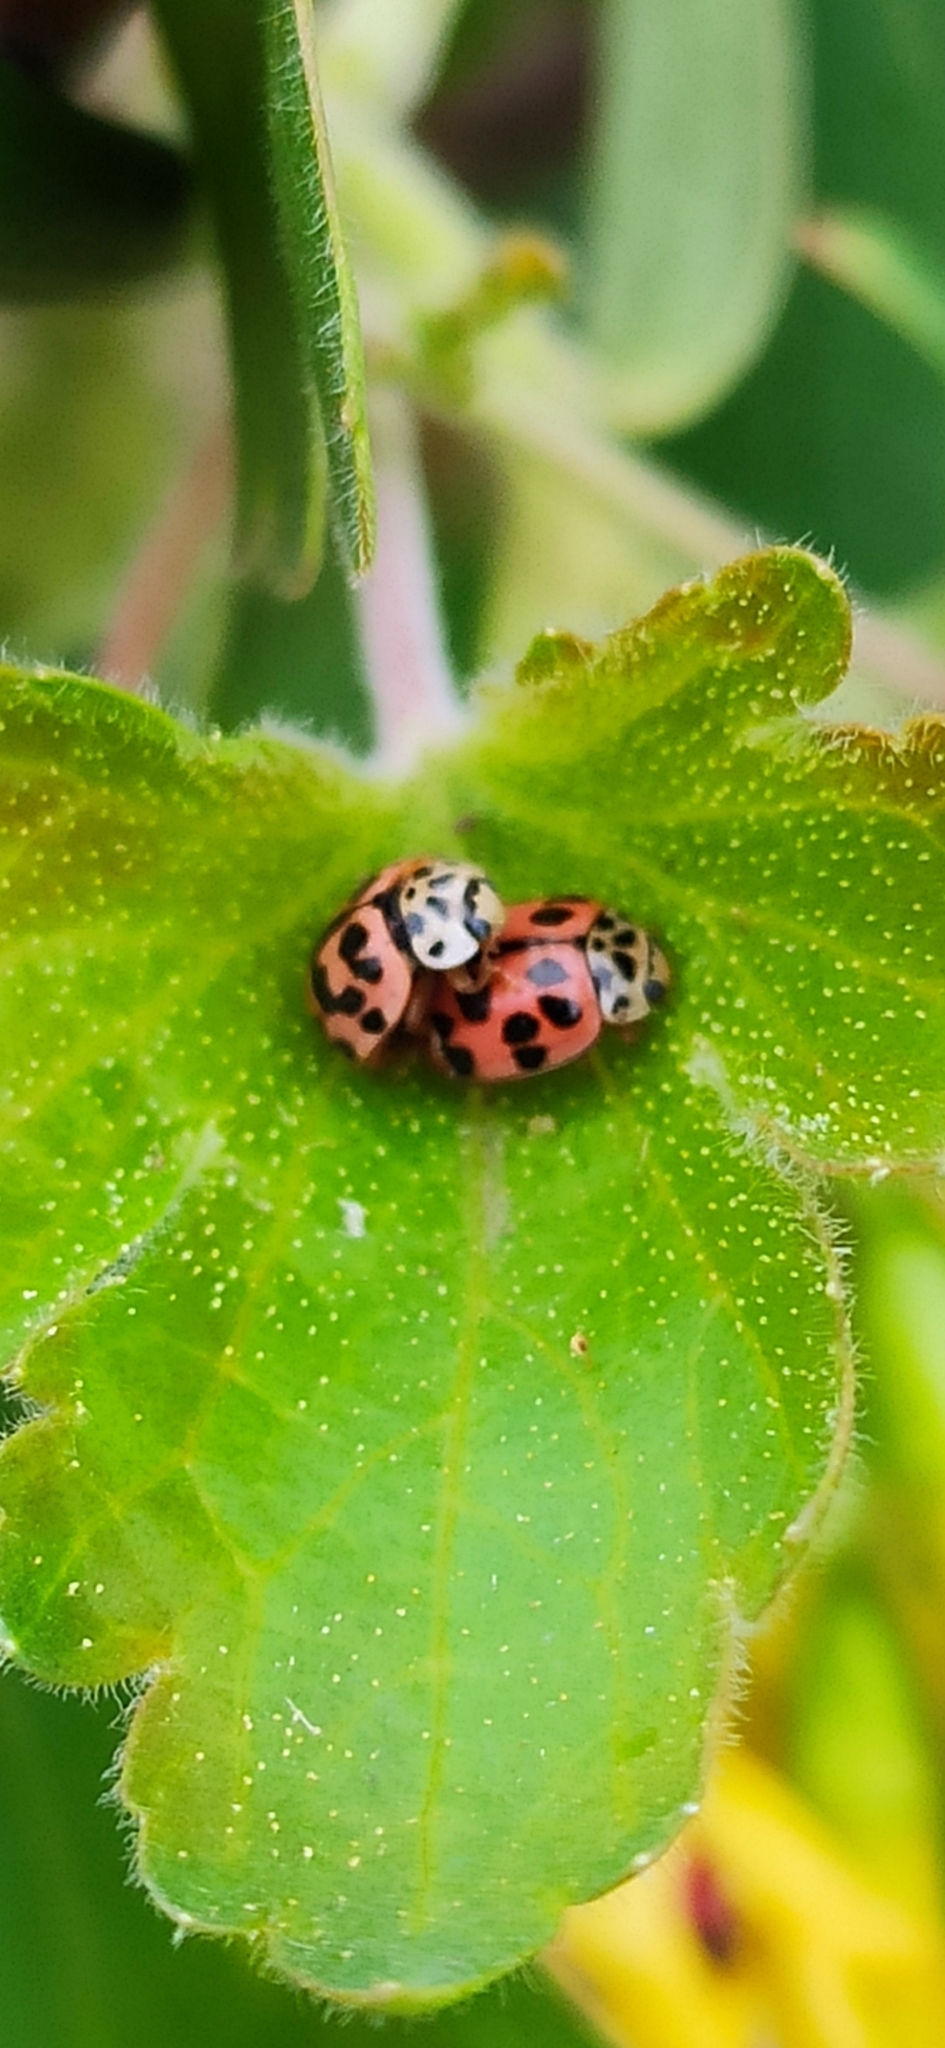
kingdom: Animalia
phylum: Arthropoda
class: Insecta
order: Coleoptera
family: Coccinellidae
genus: Oenopia
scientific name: Oenopia conglobata
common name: Ladybird beetle
